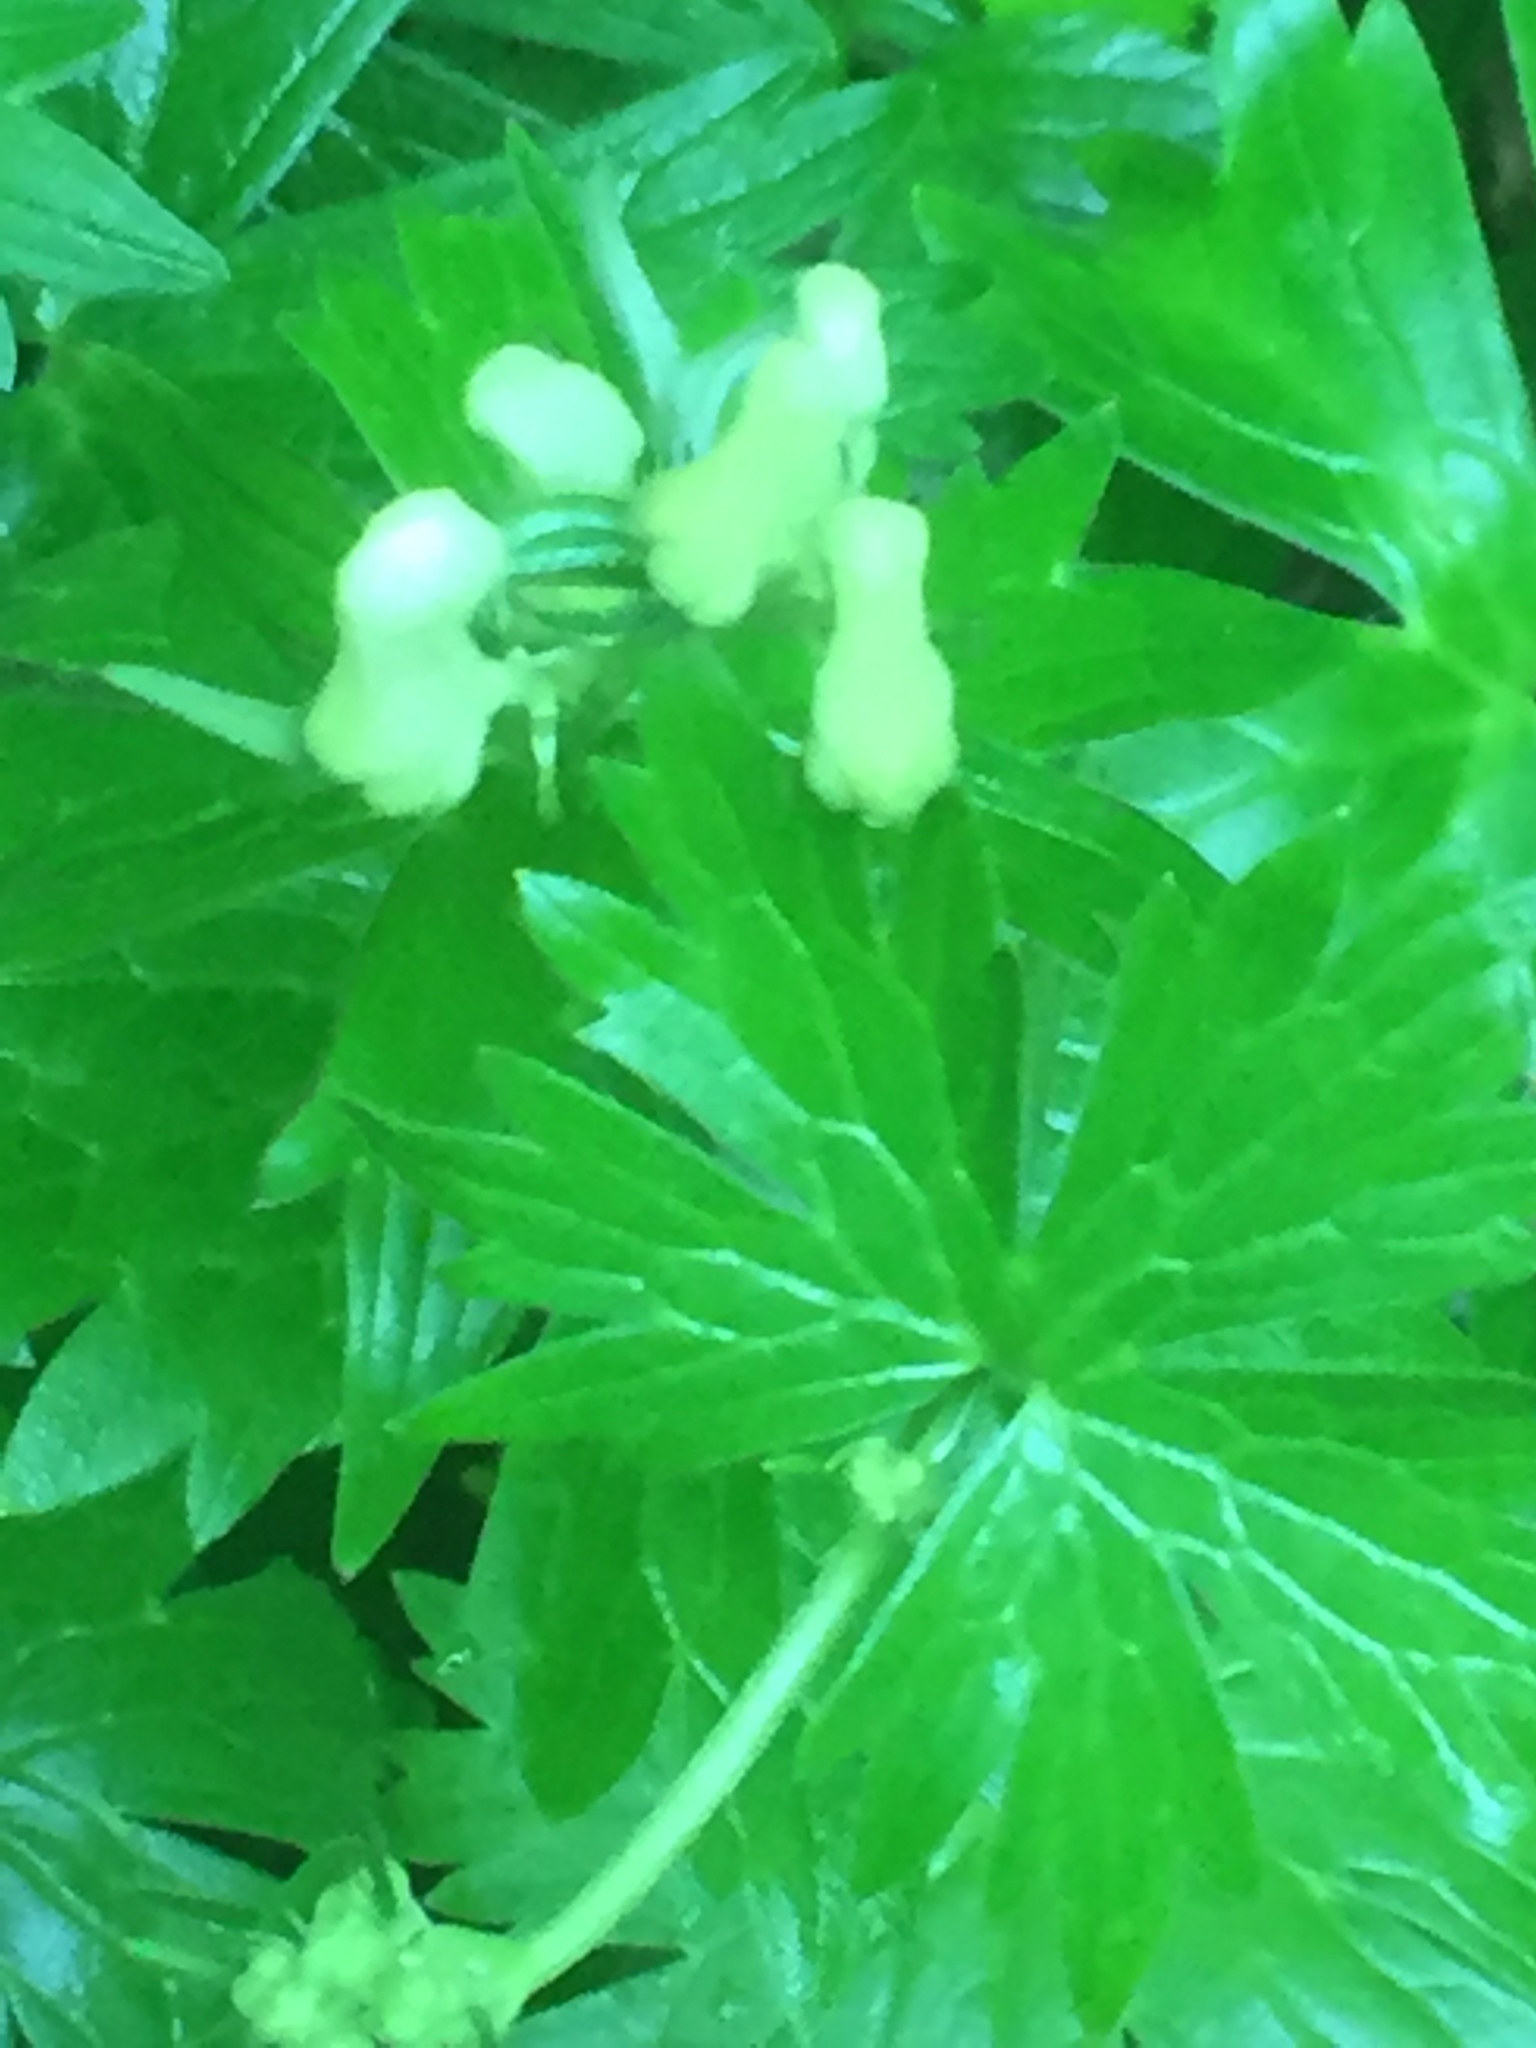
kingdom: Plantae
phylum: Tracheophyta
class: Magnoliopsida
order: Ranunculales
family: Ranunculaceae
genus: Aconitum
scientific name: Aconitum lycoctonum
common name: Wolf's-bane
